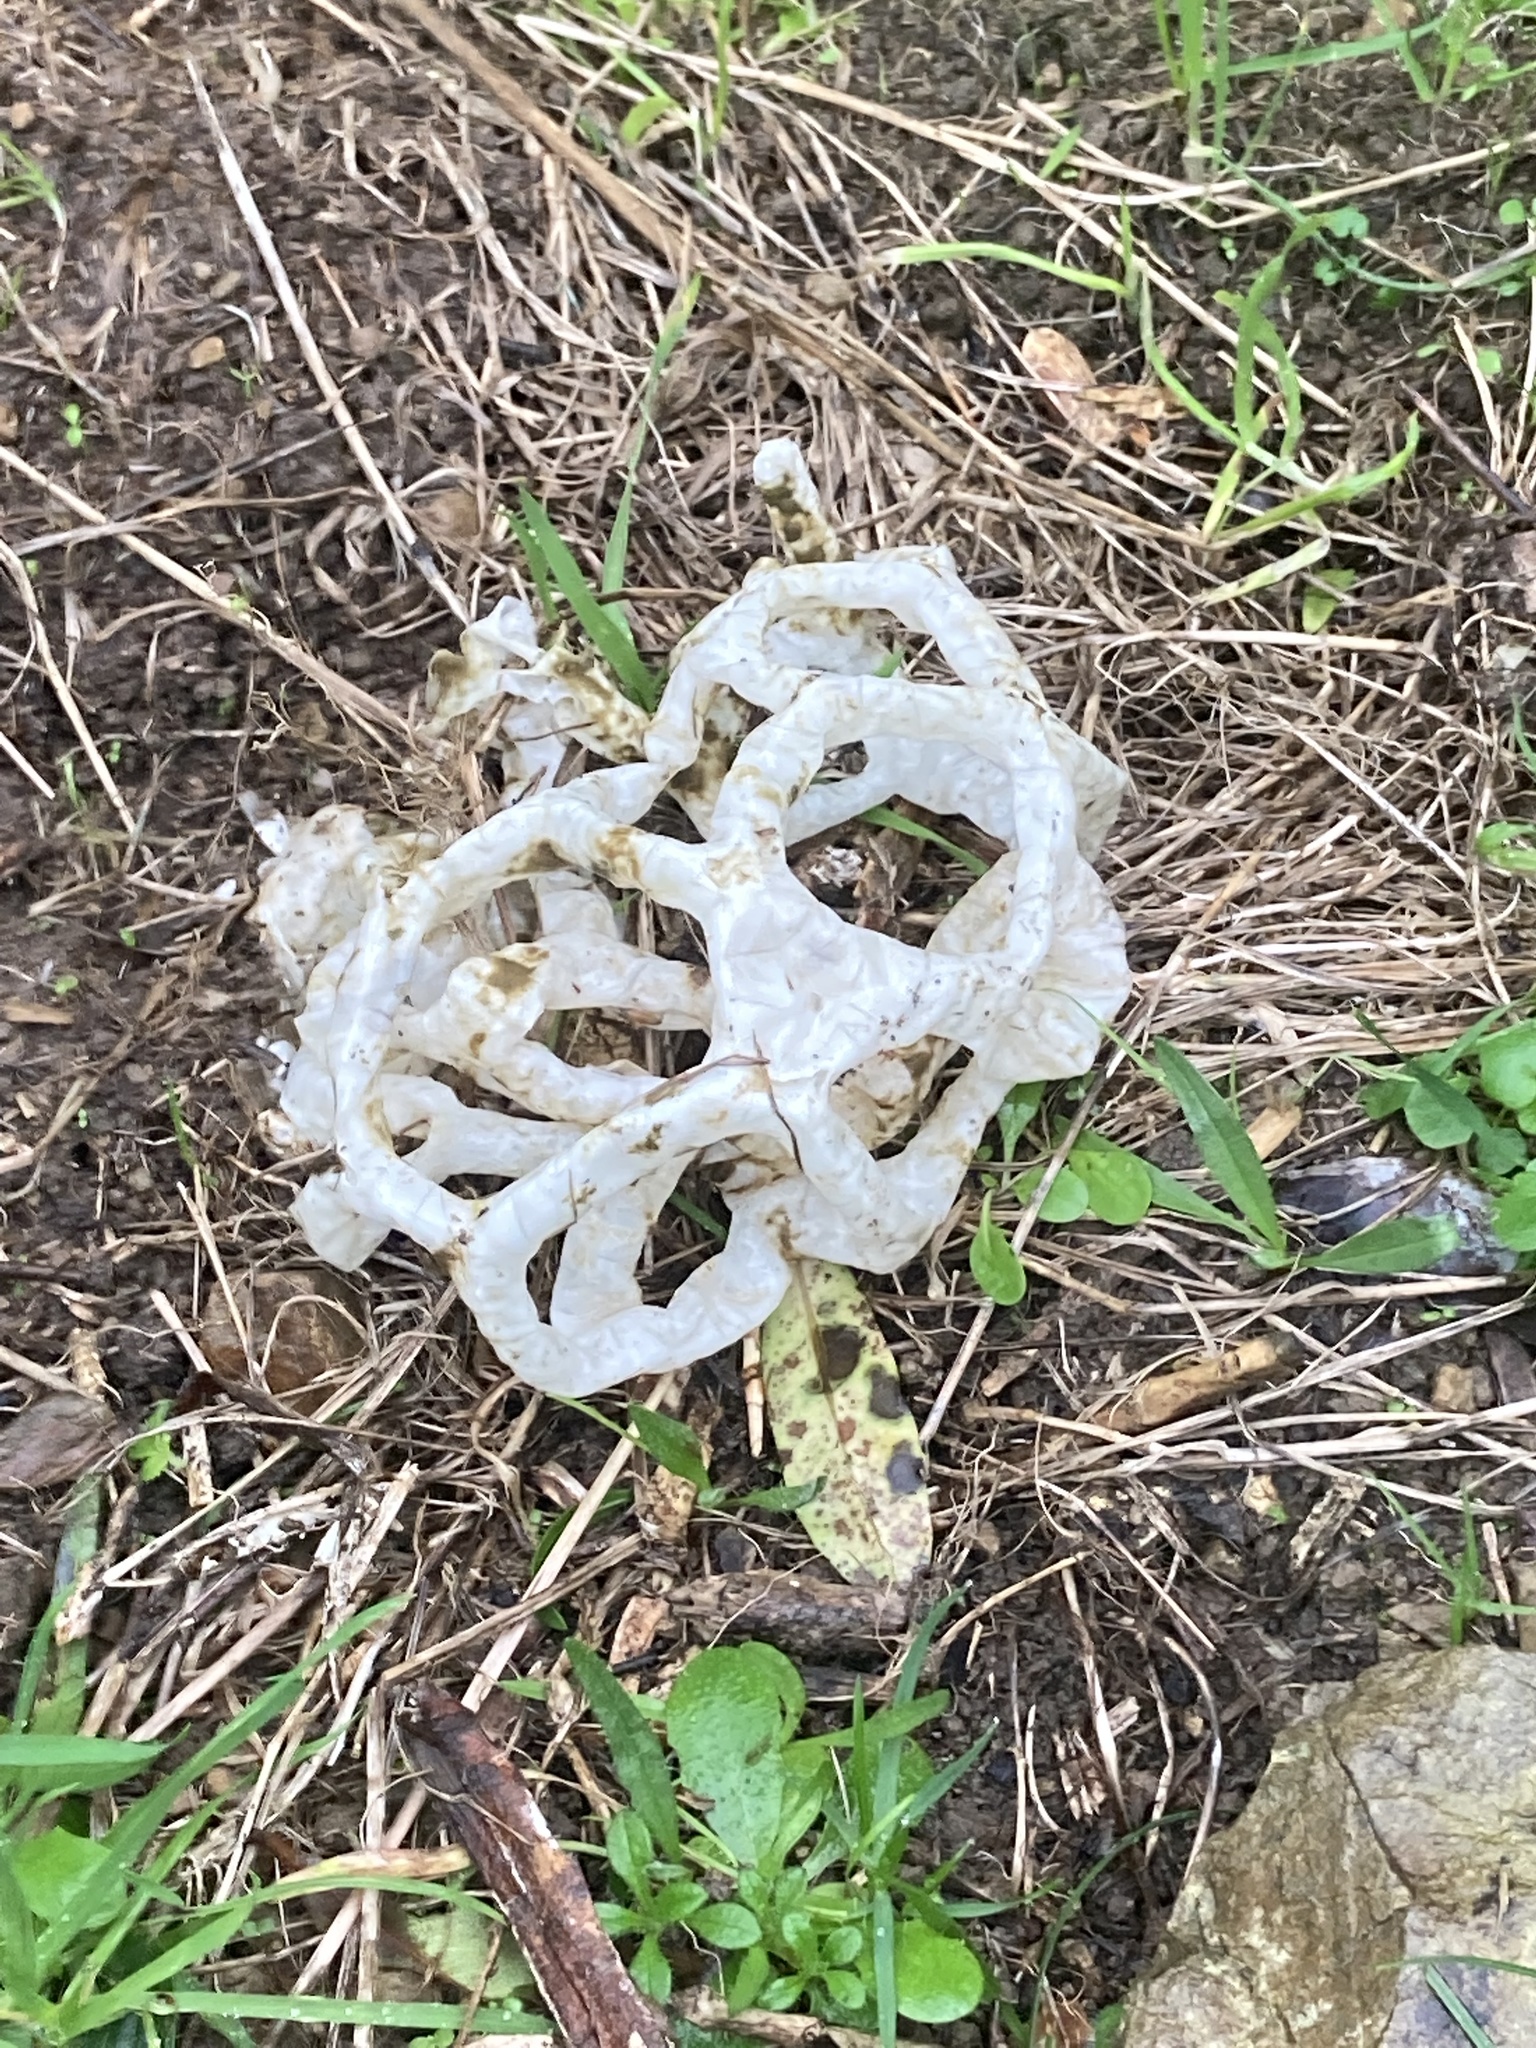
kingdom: Fungi
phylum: Basidiomycota
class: Agaricomycetes
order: Phallales
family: Phallaceae
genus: Ileodictyon
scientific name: Ileodictyon cibarium
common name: Basket fungus
